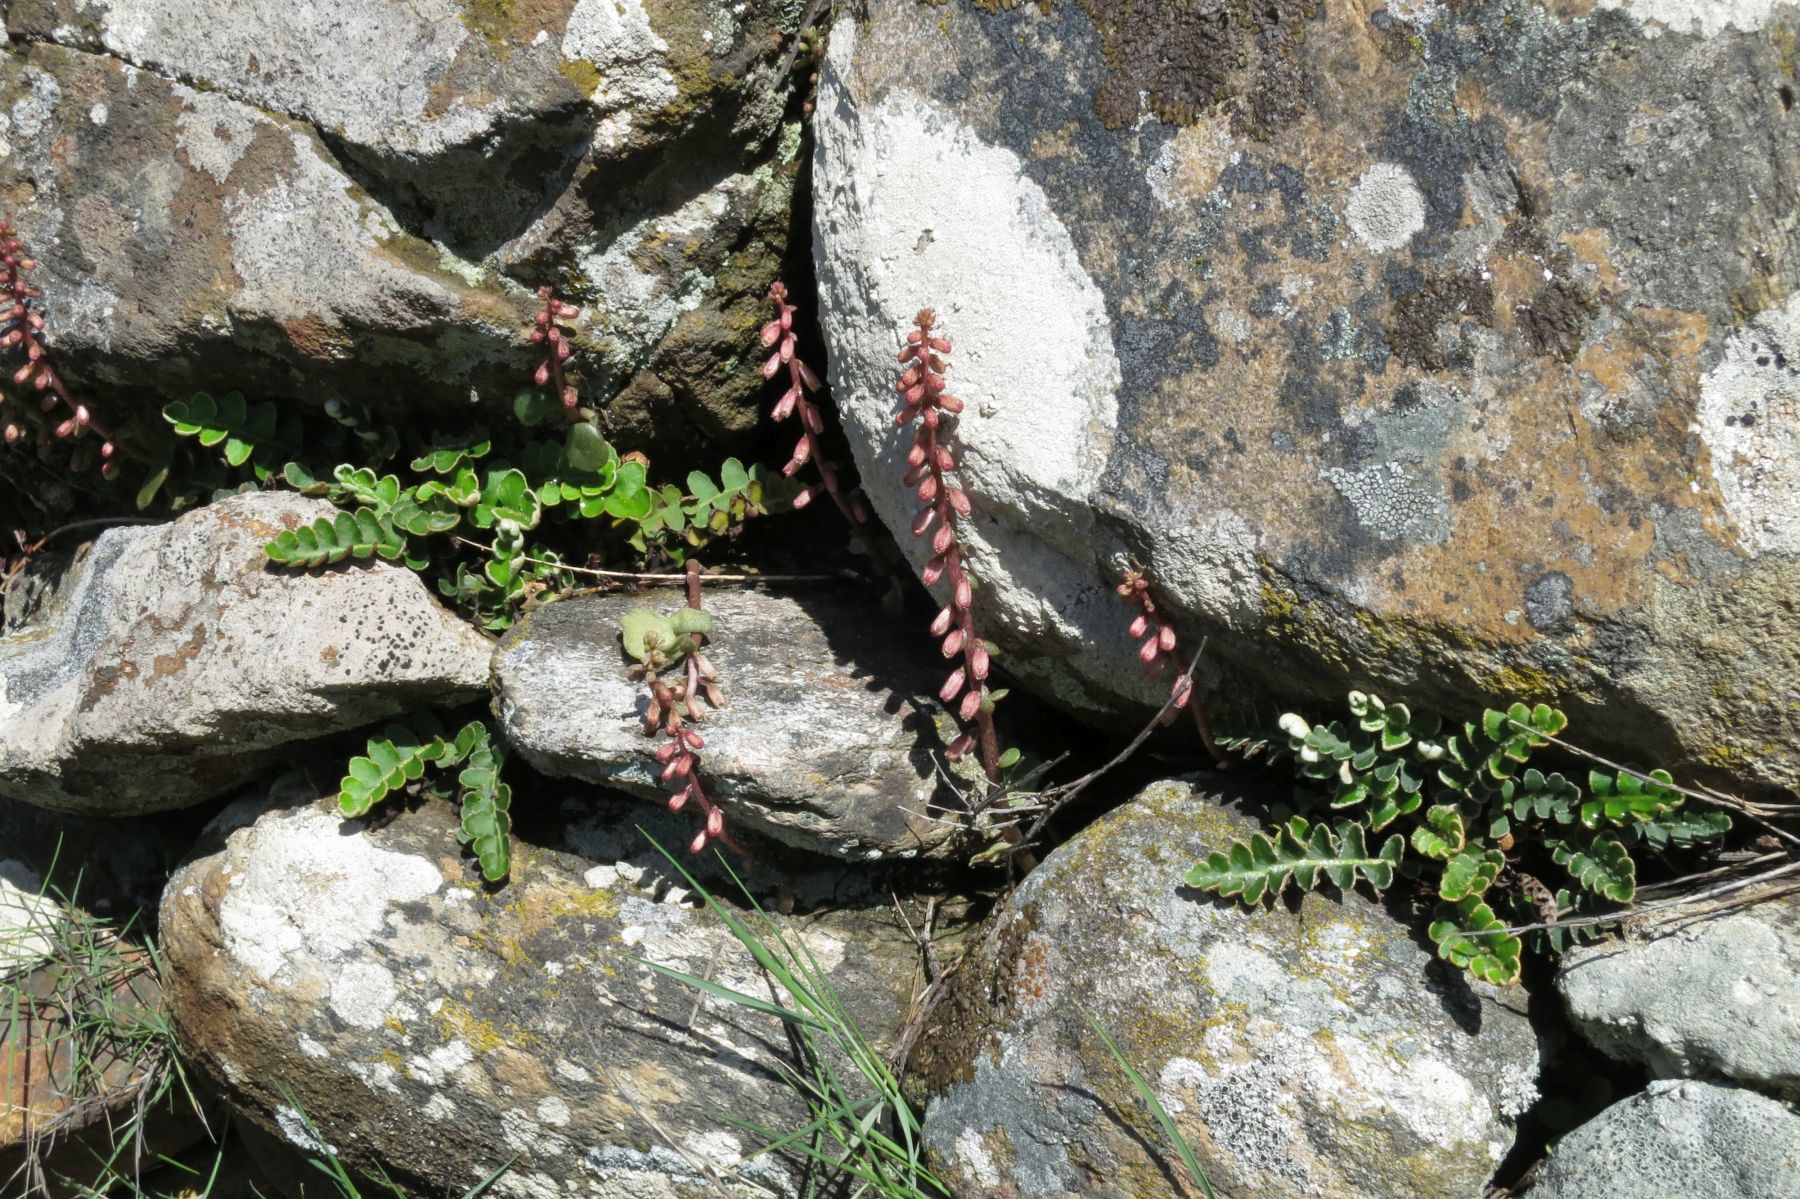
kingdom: Plantae
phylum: Tracheophyta
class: Polypodiopsida
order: Polypodiales
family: Aspleniaceae
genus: Asplenium
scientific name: Asplenium ceterach
